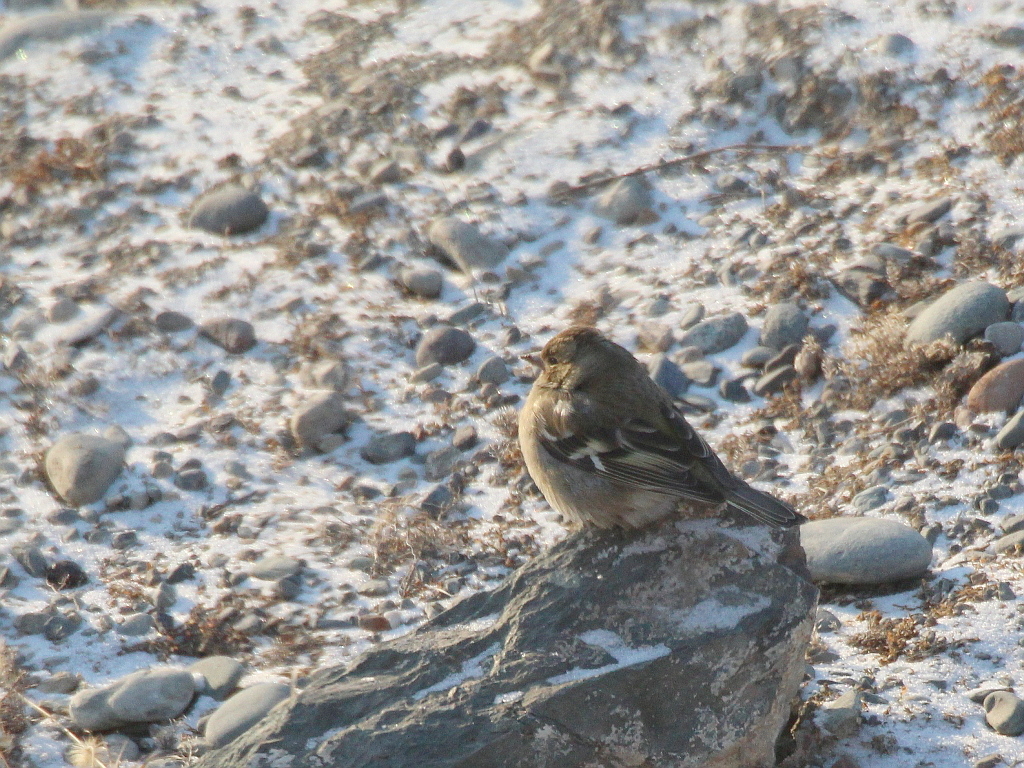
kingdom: Animalia
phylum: Chordata
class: Aves
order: Passeriformes
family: Fringillidae
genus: Fringilla
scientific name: Fringilla coelebs
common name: Common chaffinch
